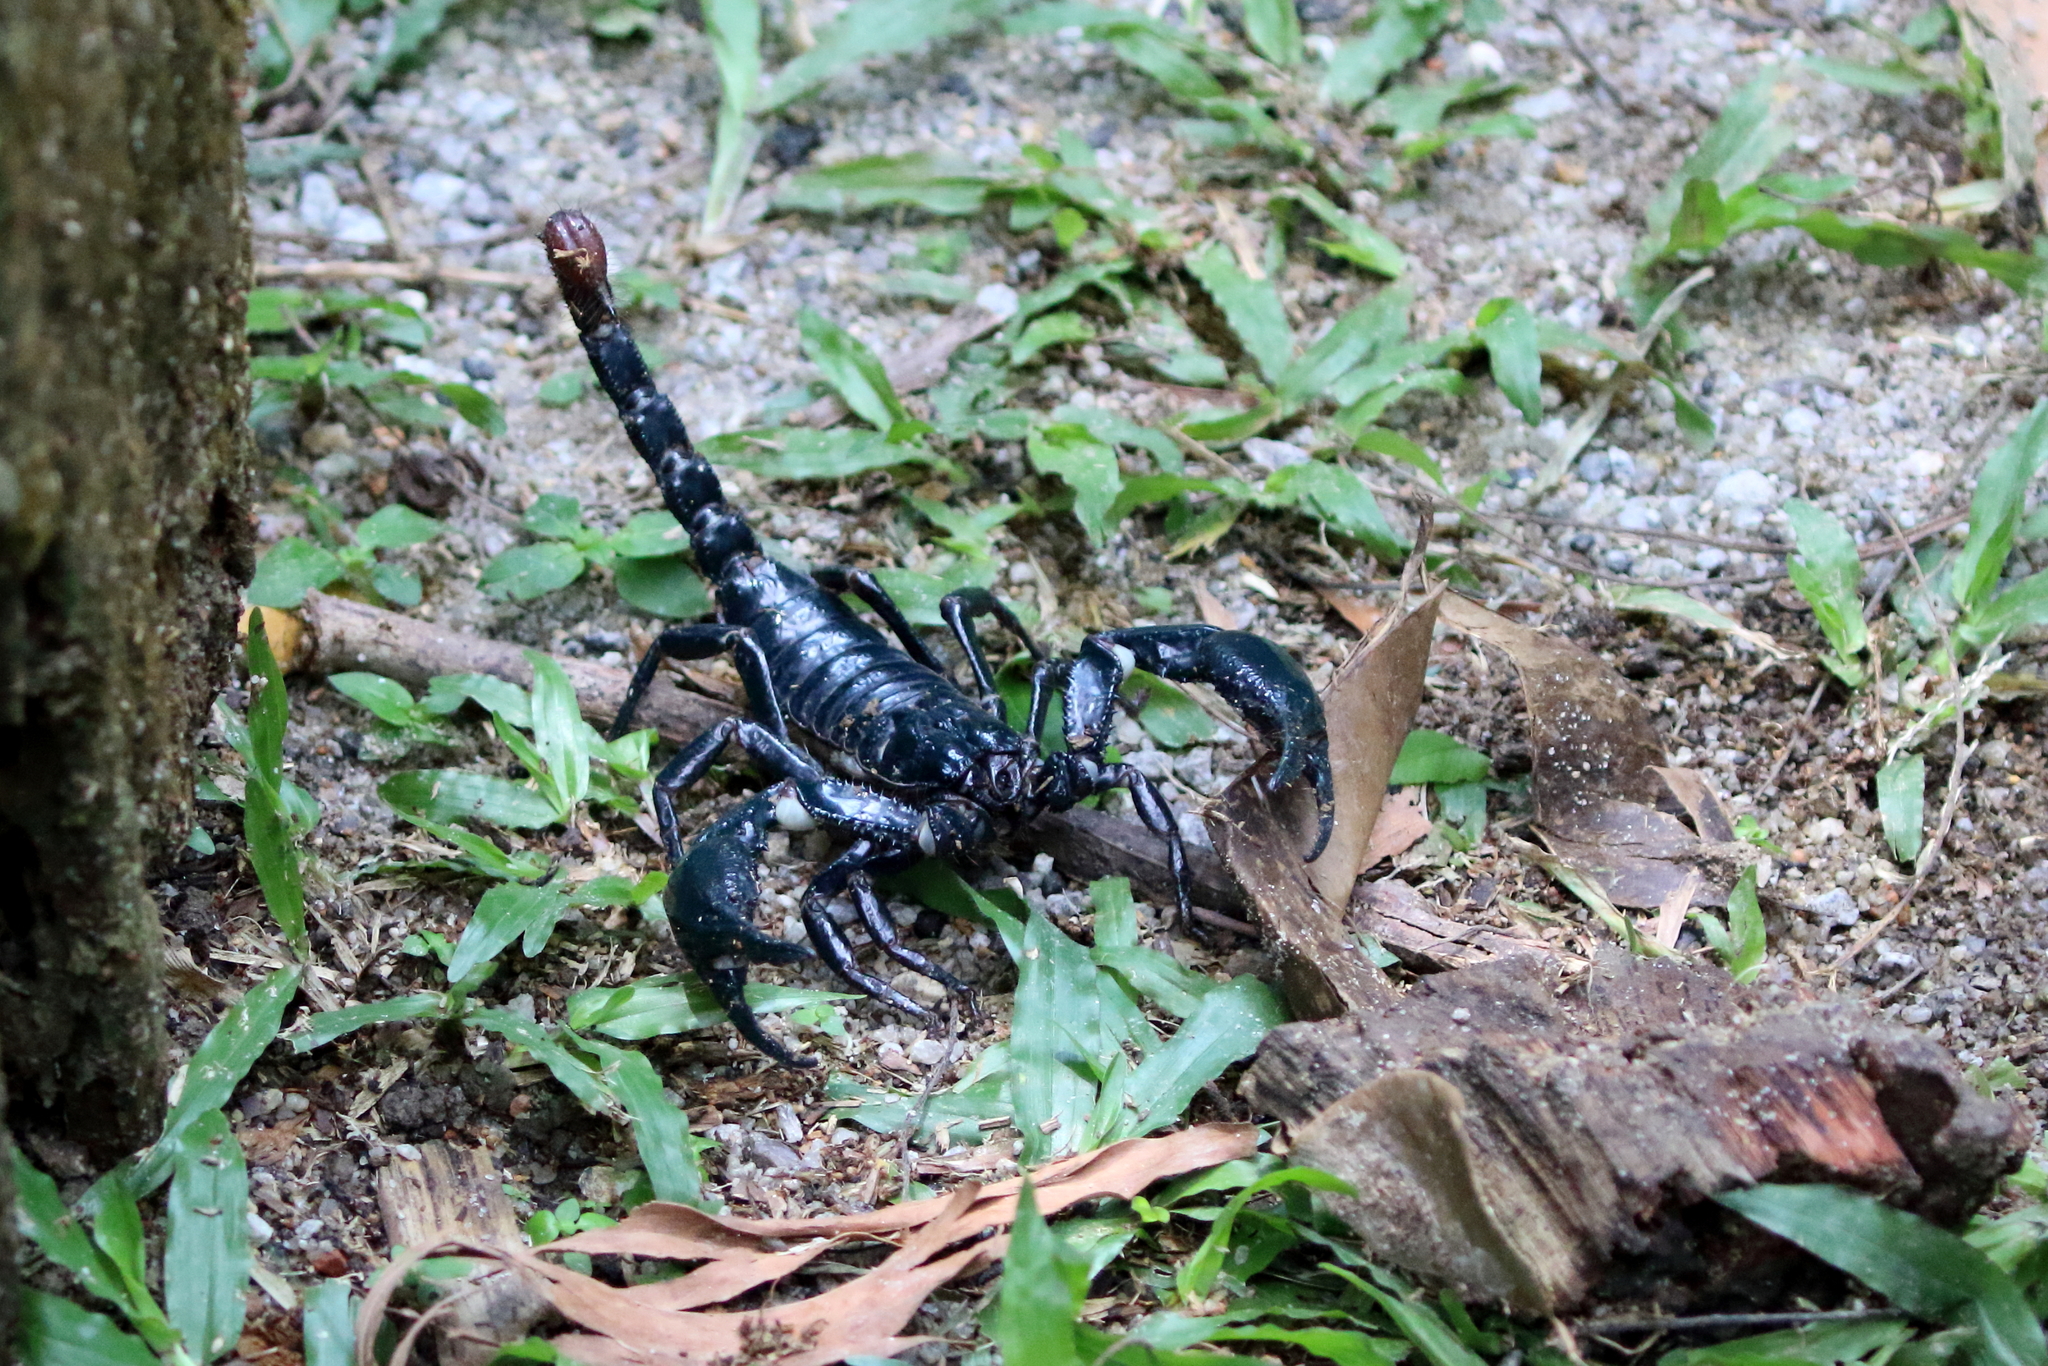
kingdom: Animalia
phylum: Arthropoda
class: Arachnida
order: Scorpiones
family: Scorpionidae
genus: Heterometrus
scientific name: Heterometrus spinifer
